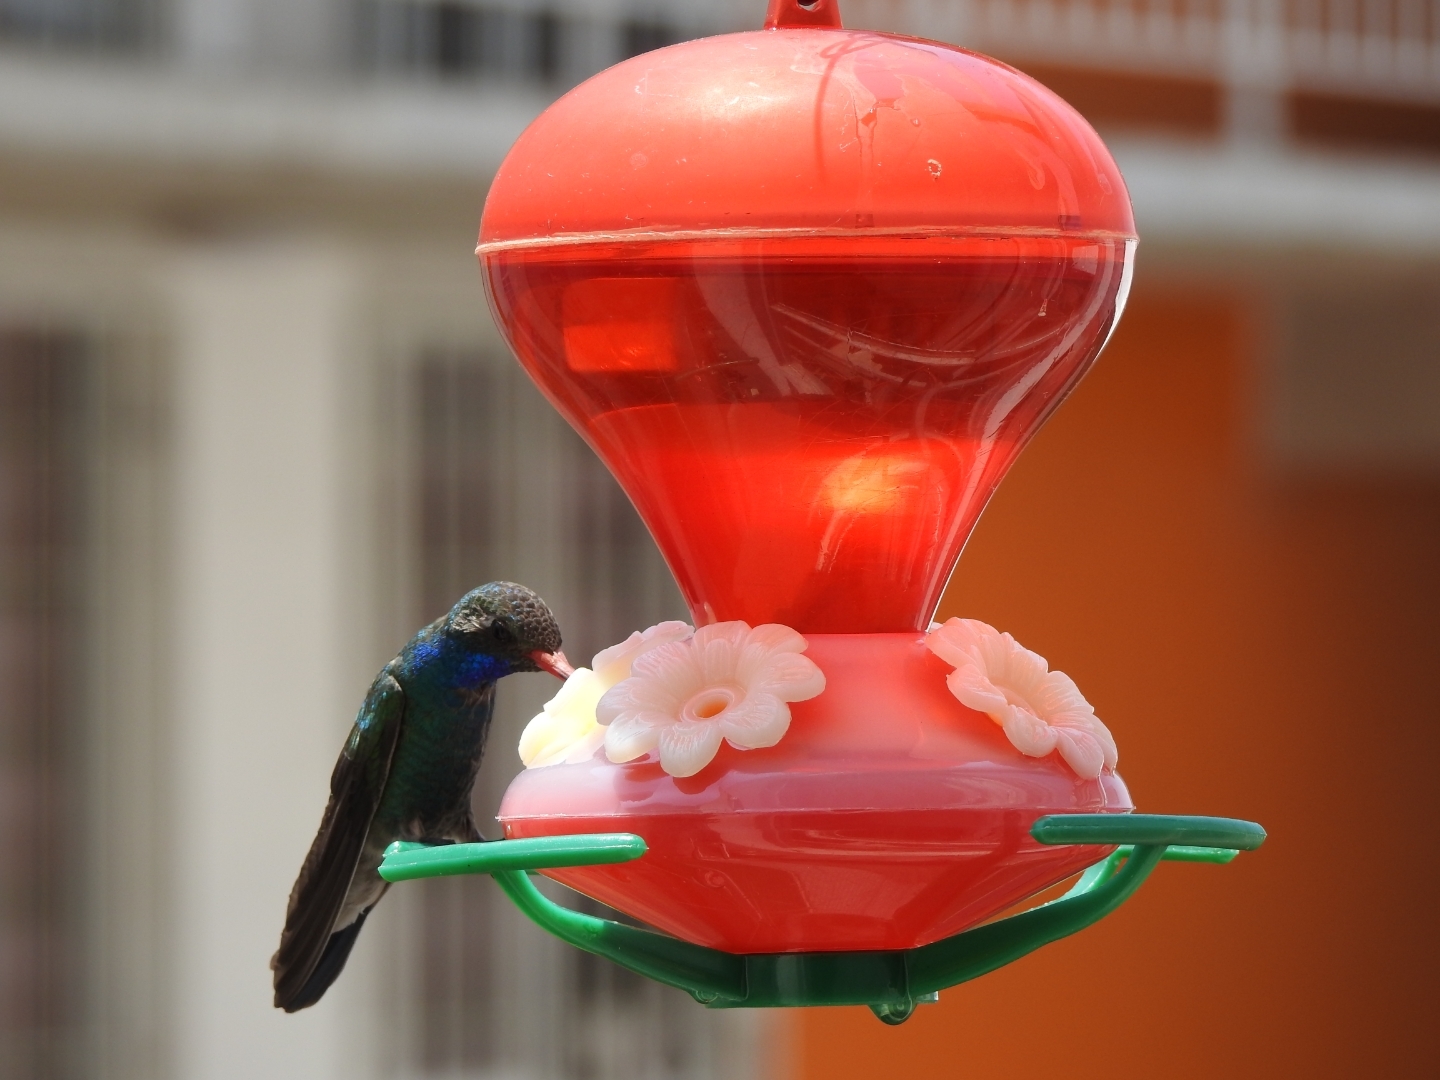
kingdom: Animalia
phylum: Chordata
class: Aves
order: Apodiformes
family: Trochilidae
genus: Cynanthus
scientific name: Cynanthus latirostris
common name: Broad-billed hummingbird
